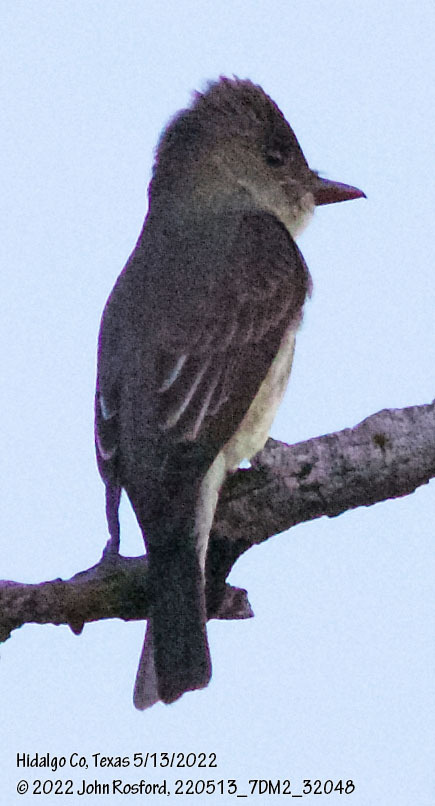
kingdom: Animalia
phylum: Chordata
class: Aves
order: Passeriformes
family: Tyrannidae
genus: Contopus
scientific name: Contopus cooperi
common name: Olive-sided flycatcher
